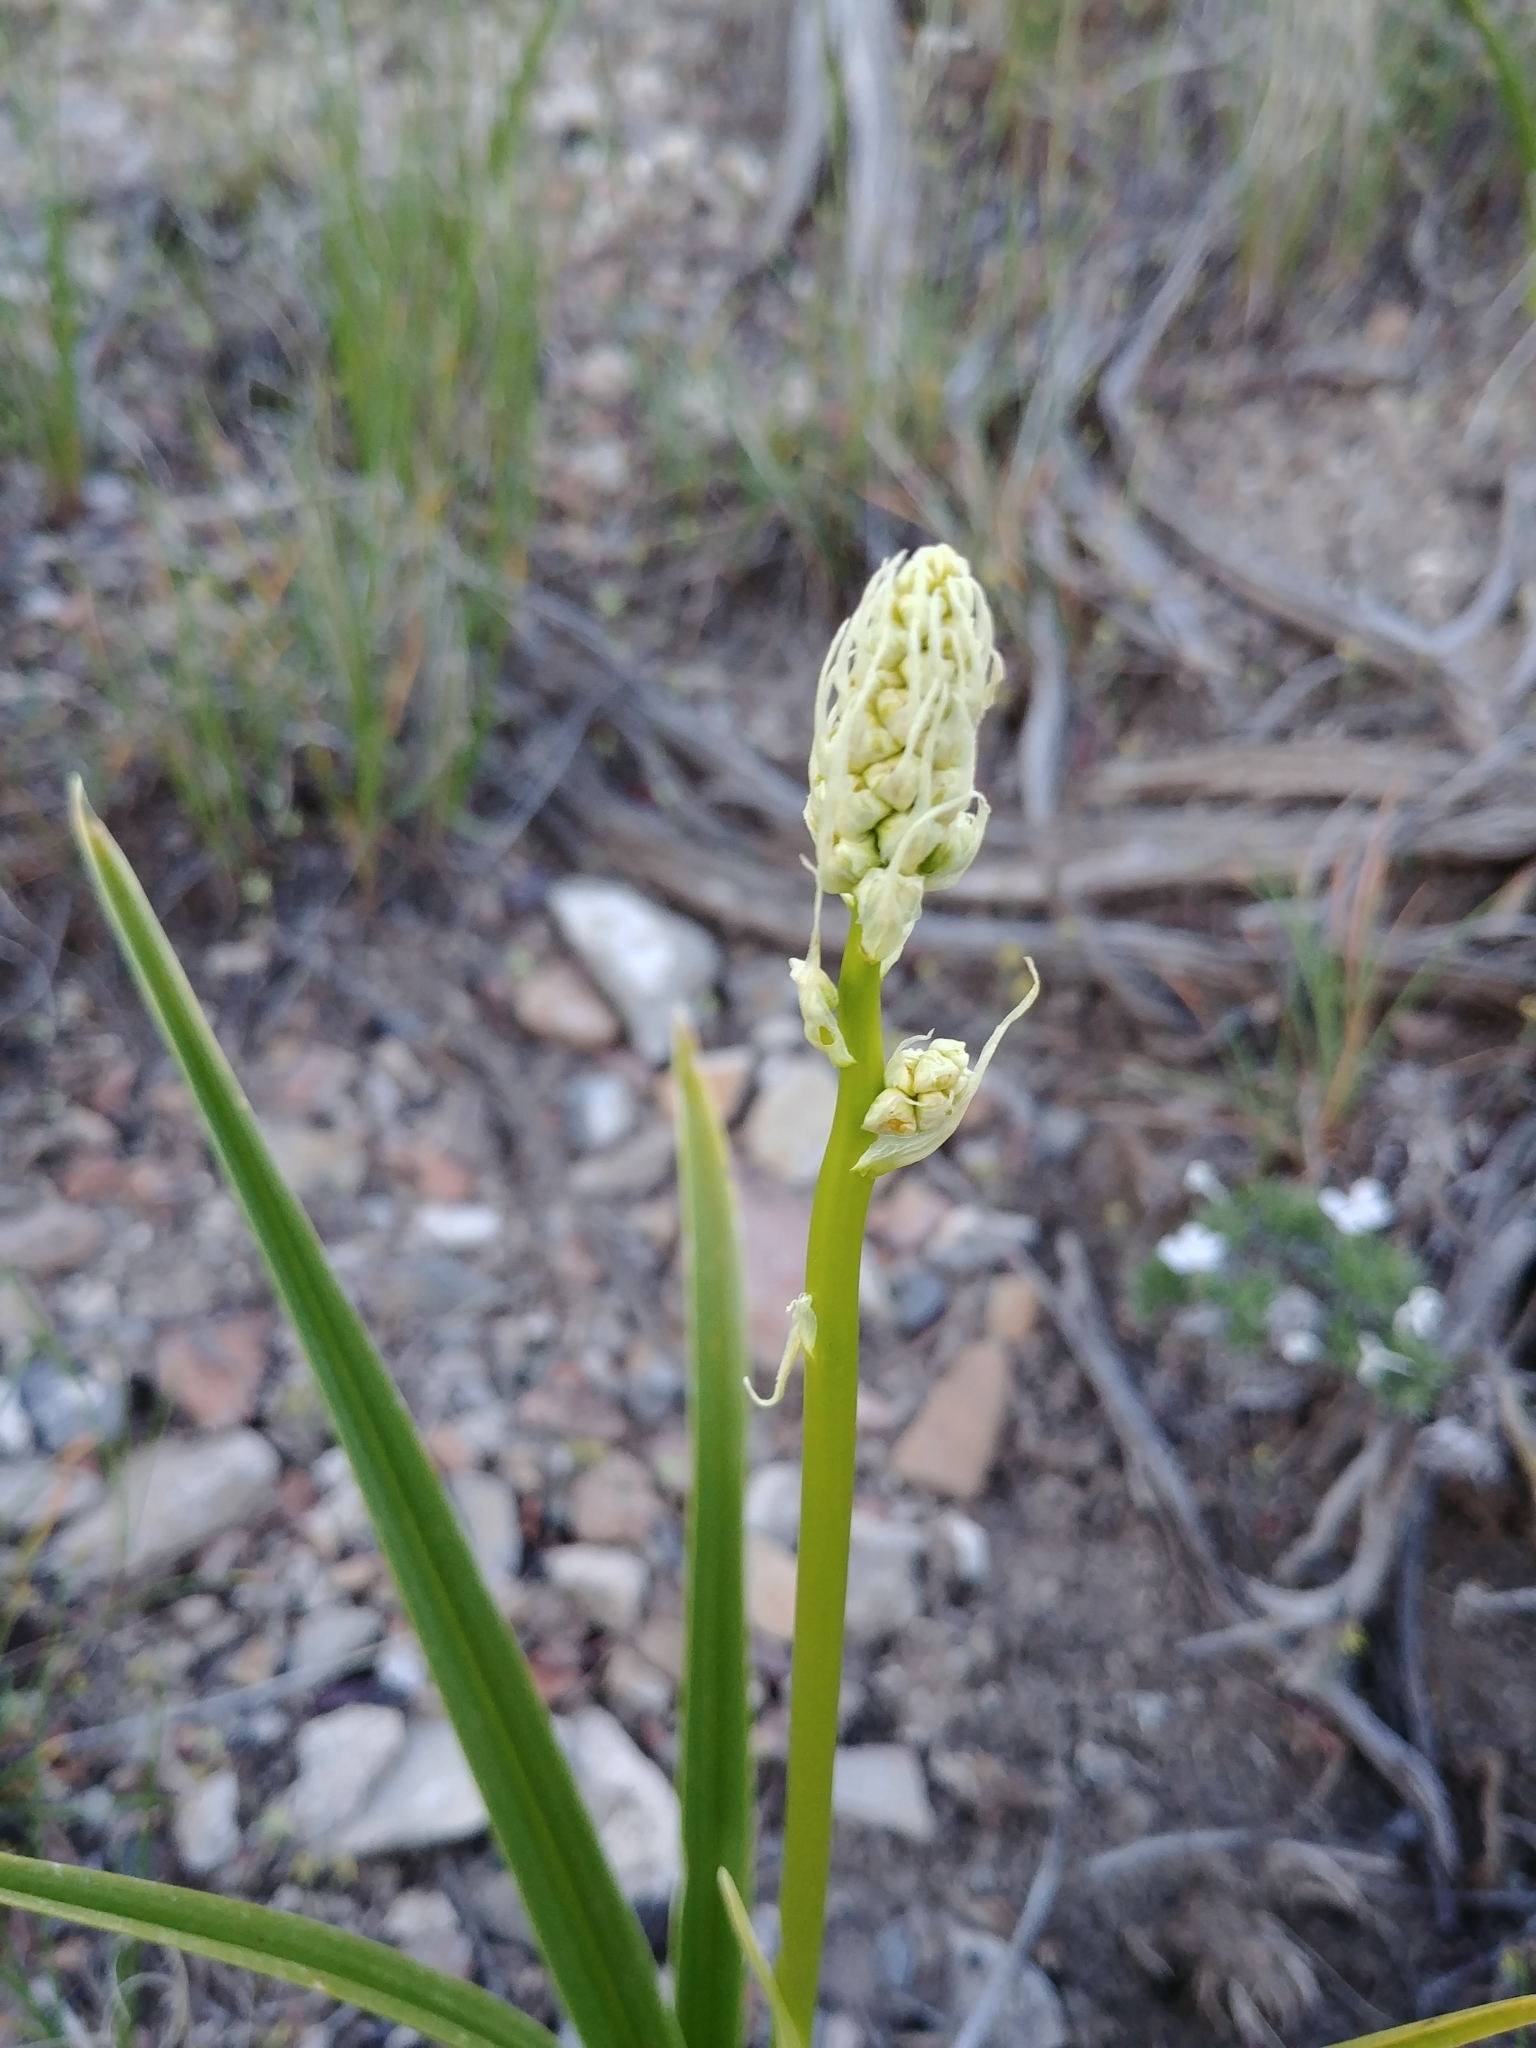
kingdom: Plantae
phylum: Tracheophyta
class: Liliopsida
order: Liliales
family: Melanthiaceae
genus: Toxicoscordion
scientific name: Toxicoscordion paniculatum
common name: Foothill death camas
